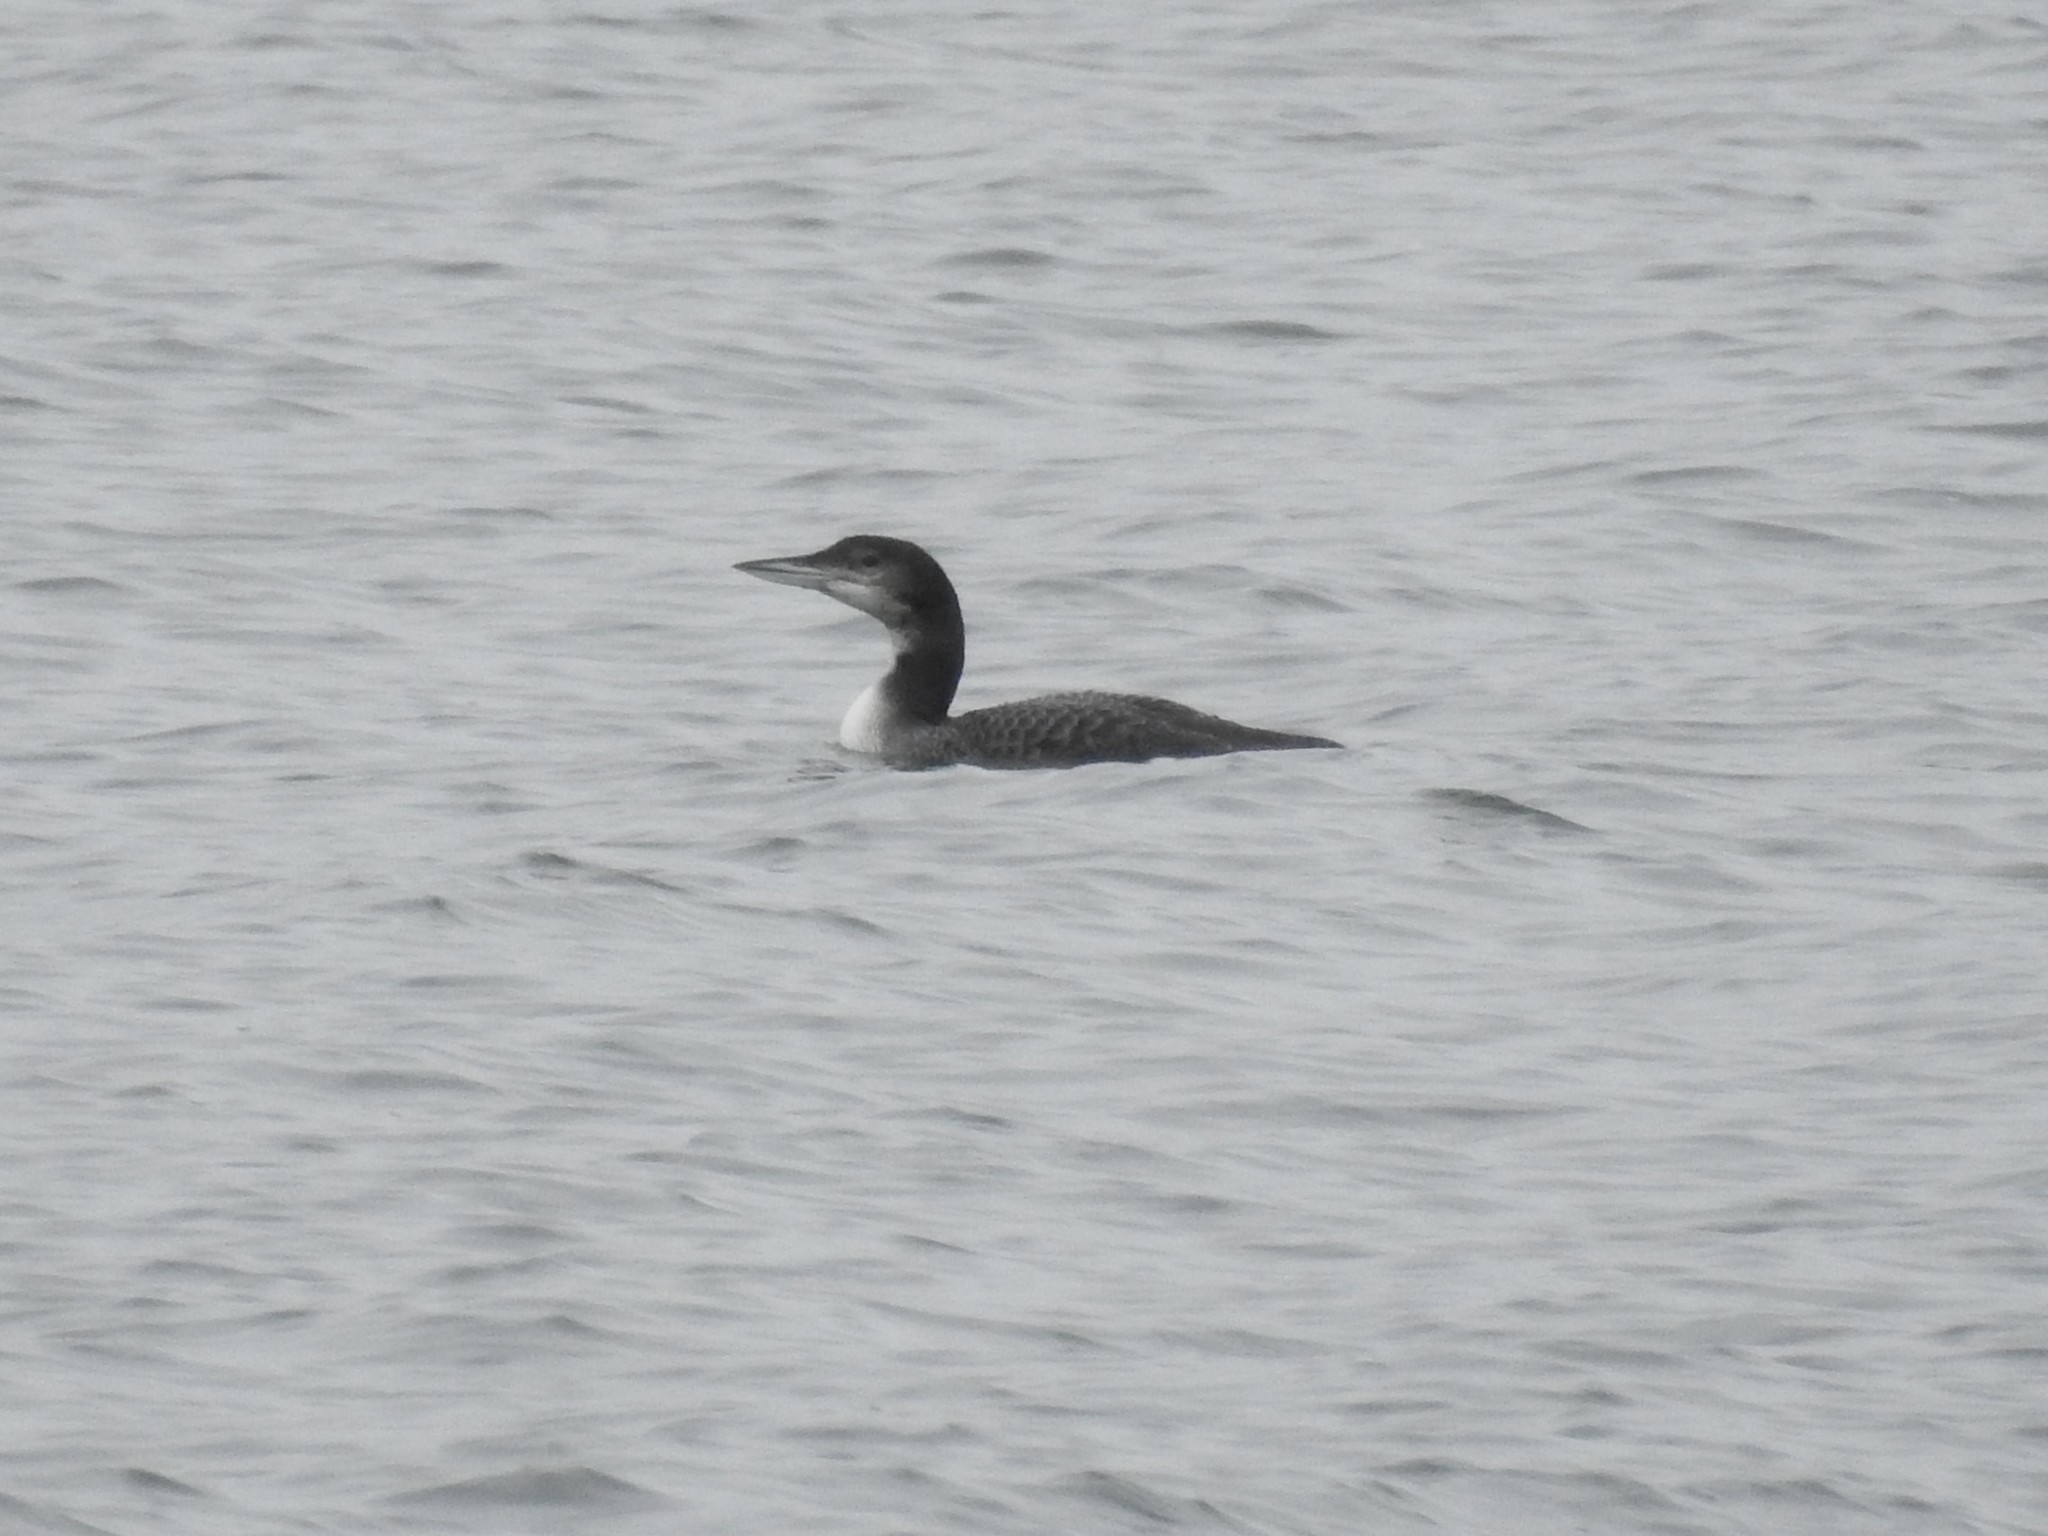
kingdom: Animalia
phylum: Chordata
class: Aves
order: Gaviiformes
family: Gaviidae
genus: Gavia
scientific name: Gavia immer
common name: Common loon
